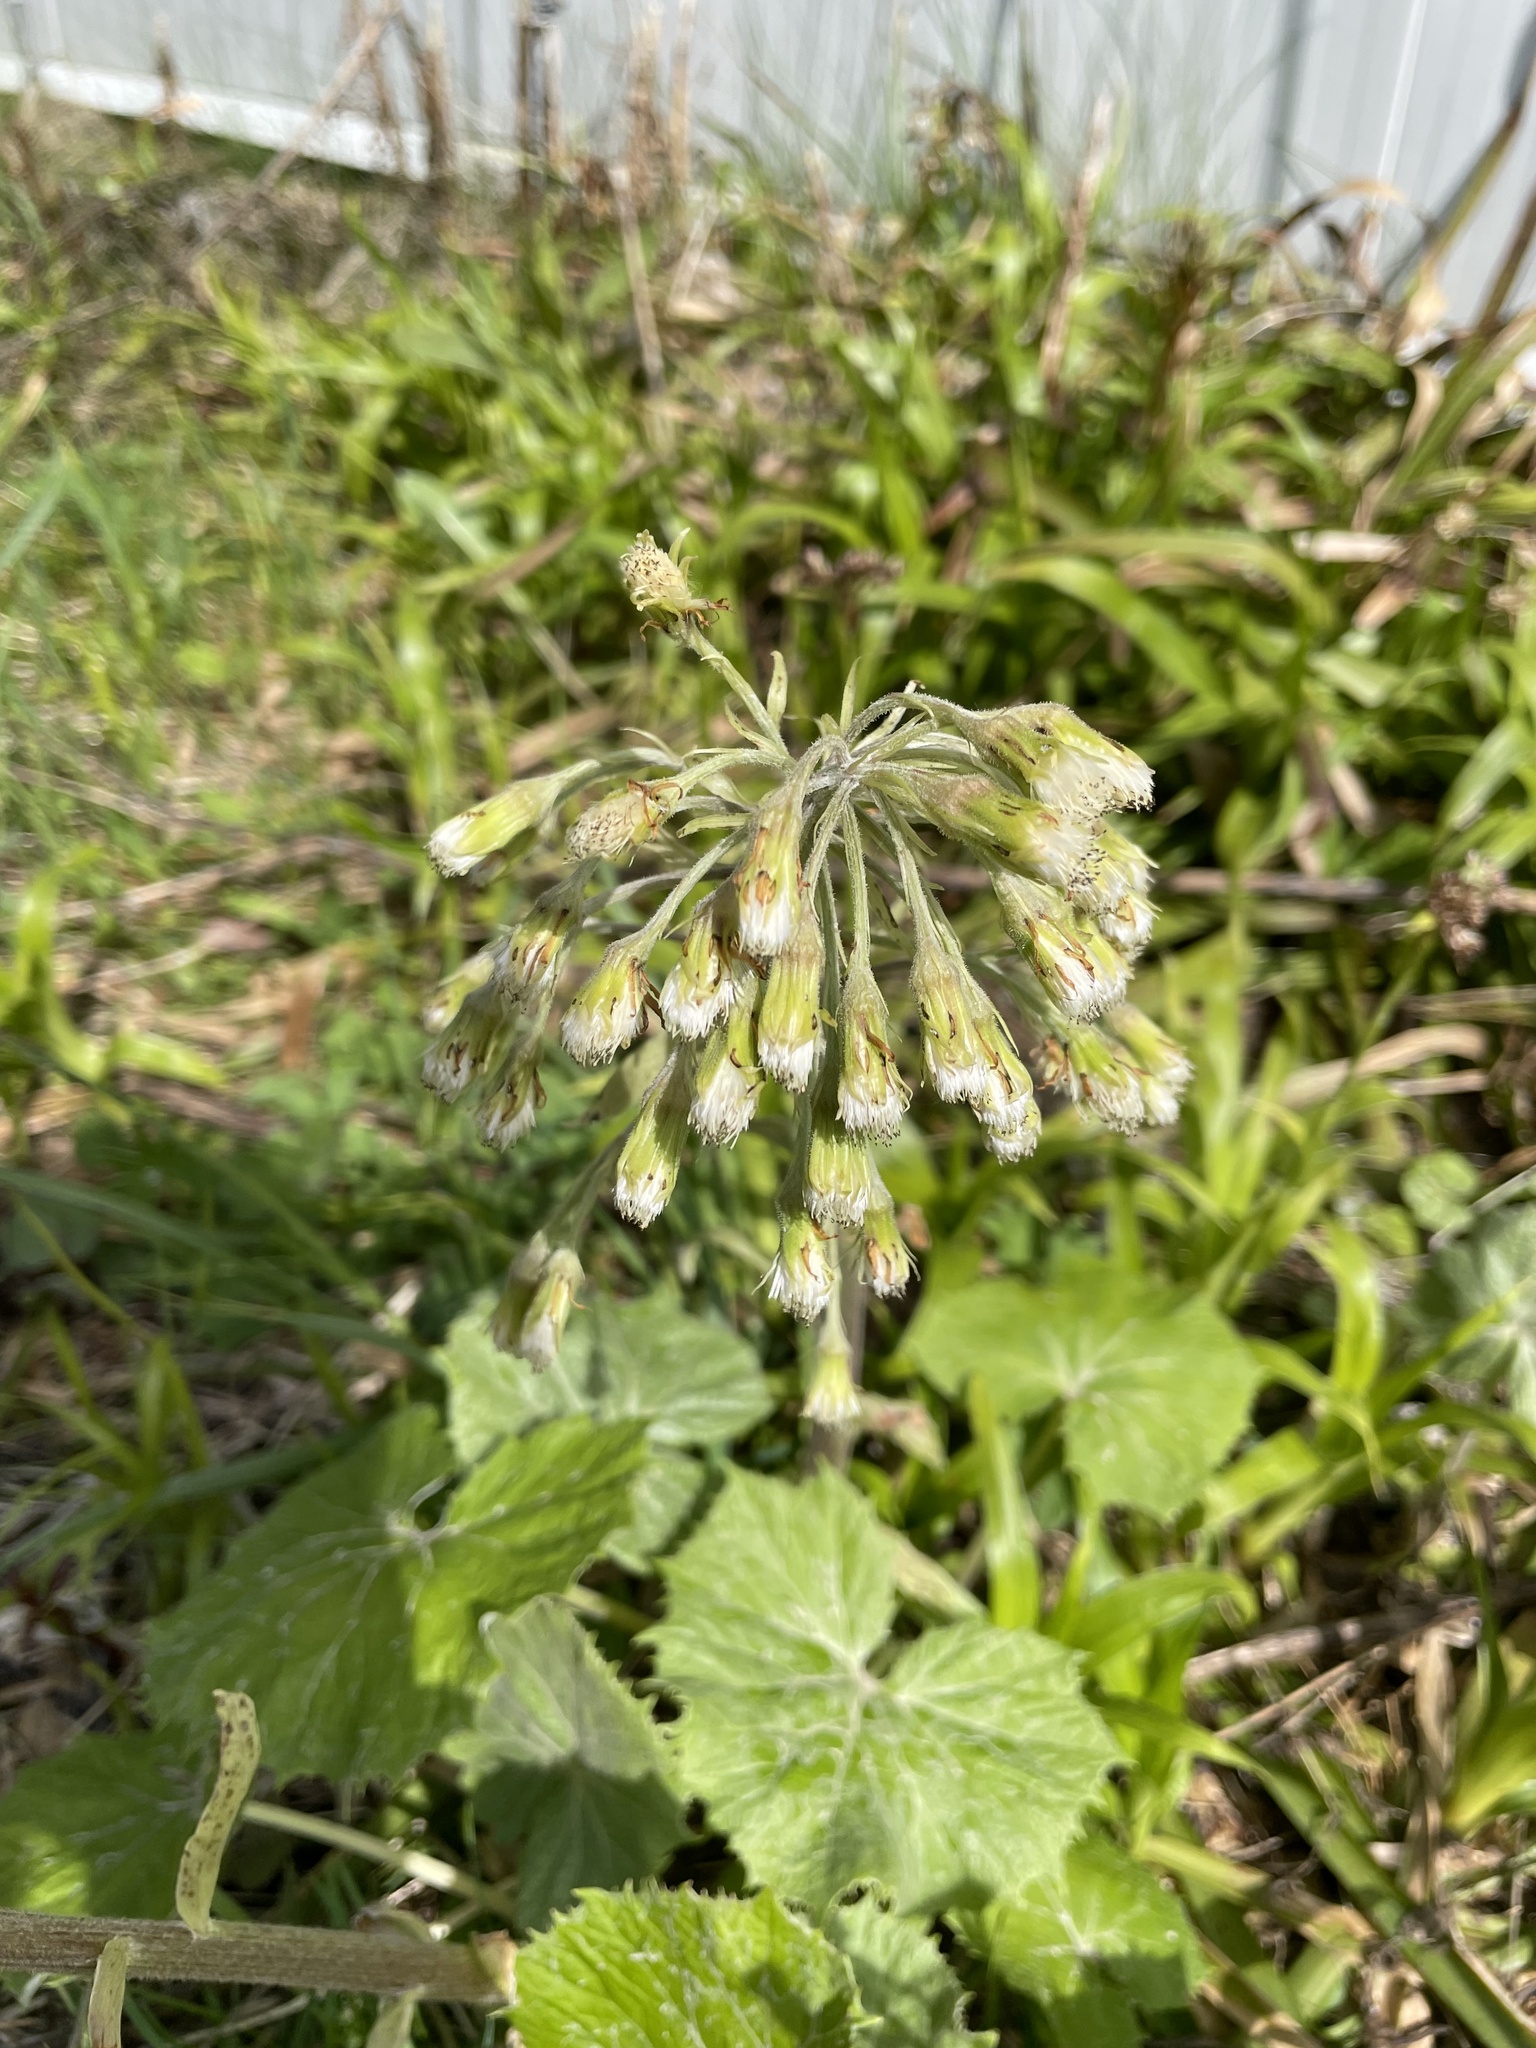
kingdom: Plantae
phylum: Tracheophyta
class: Magnoliopsida
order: Asterales
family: Asteraceae
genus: Petasites
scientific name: Petasites albus
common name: White butterbur
